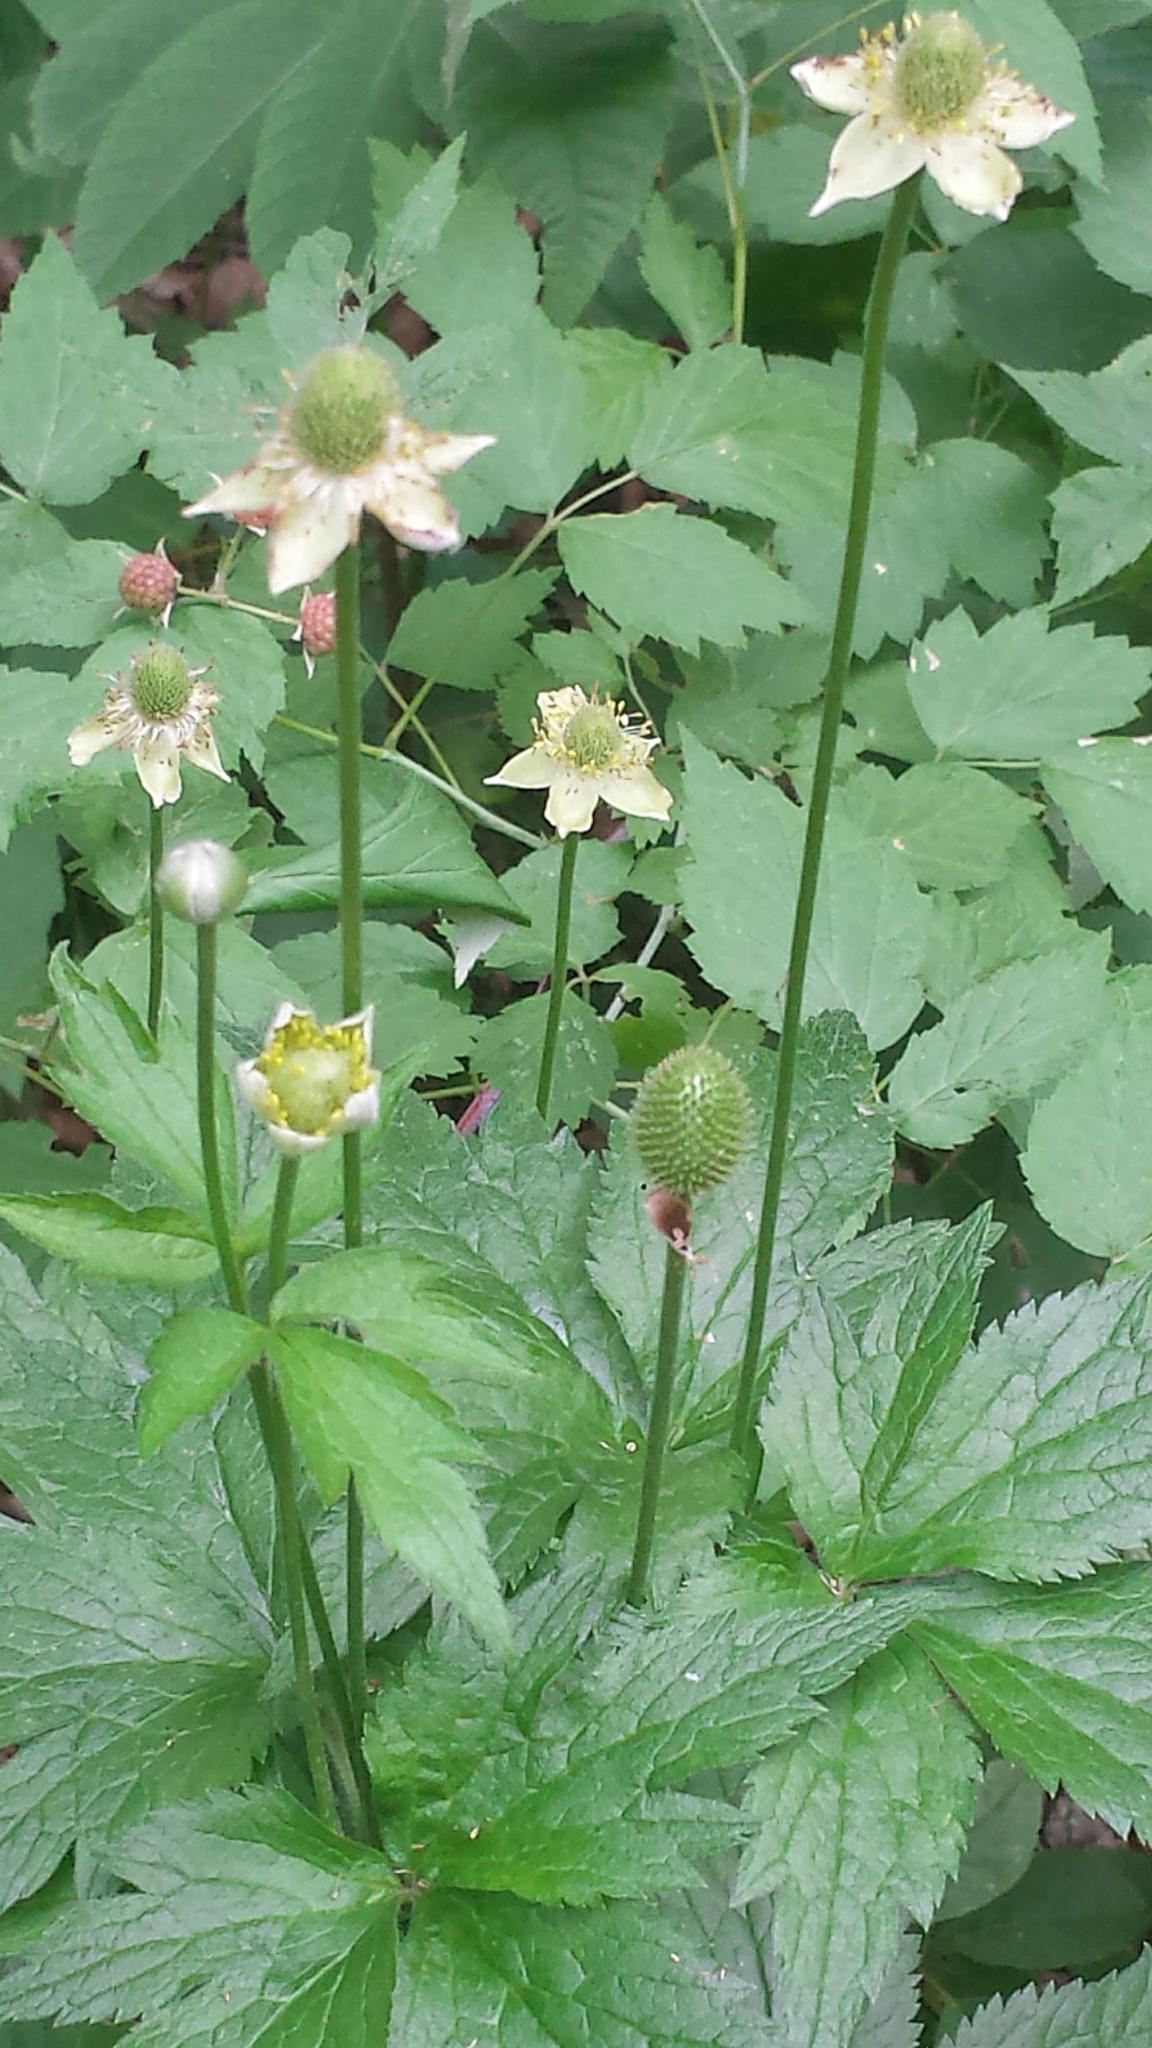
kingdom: Plantae
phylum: Tracheophyta
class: Magnoliopsida
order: Ranunculales
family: Ranunculaceae
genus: Anemone
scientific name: Anemone virginiana
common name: Tall anemone
